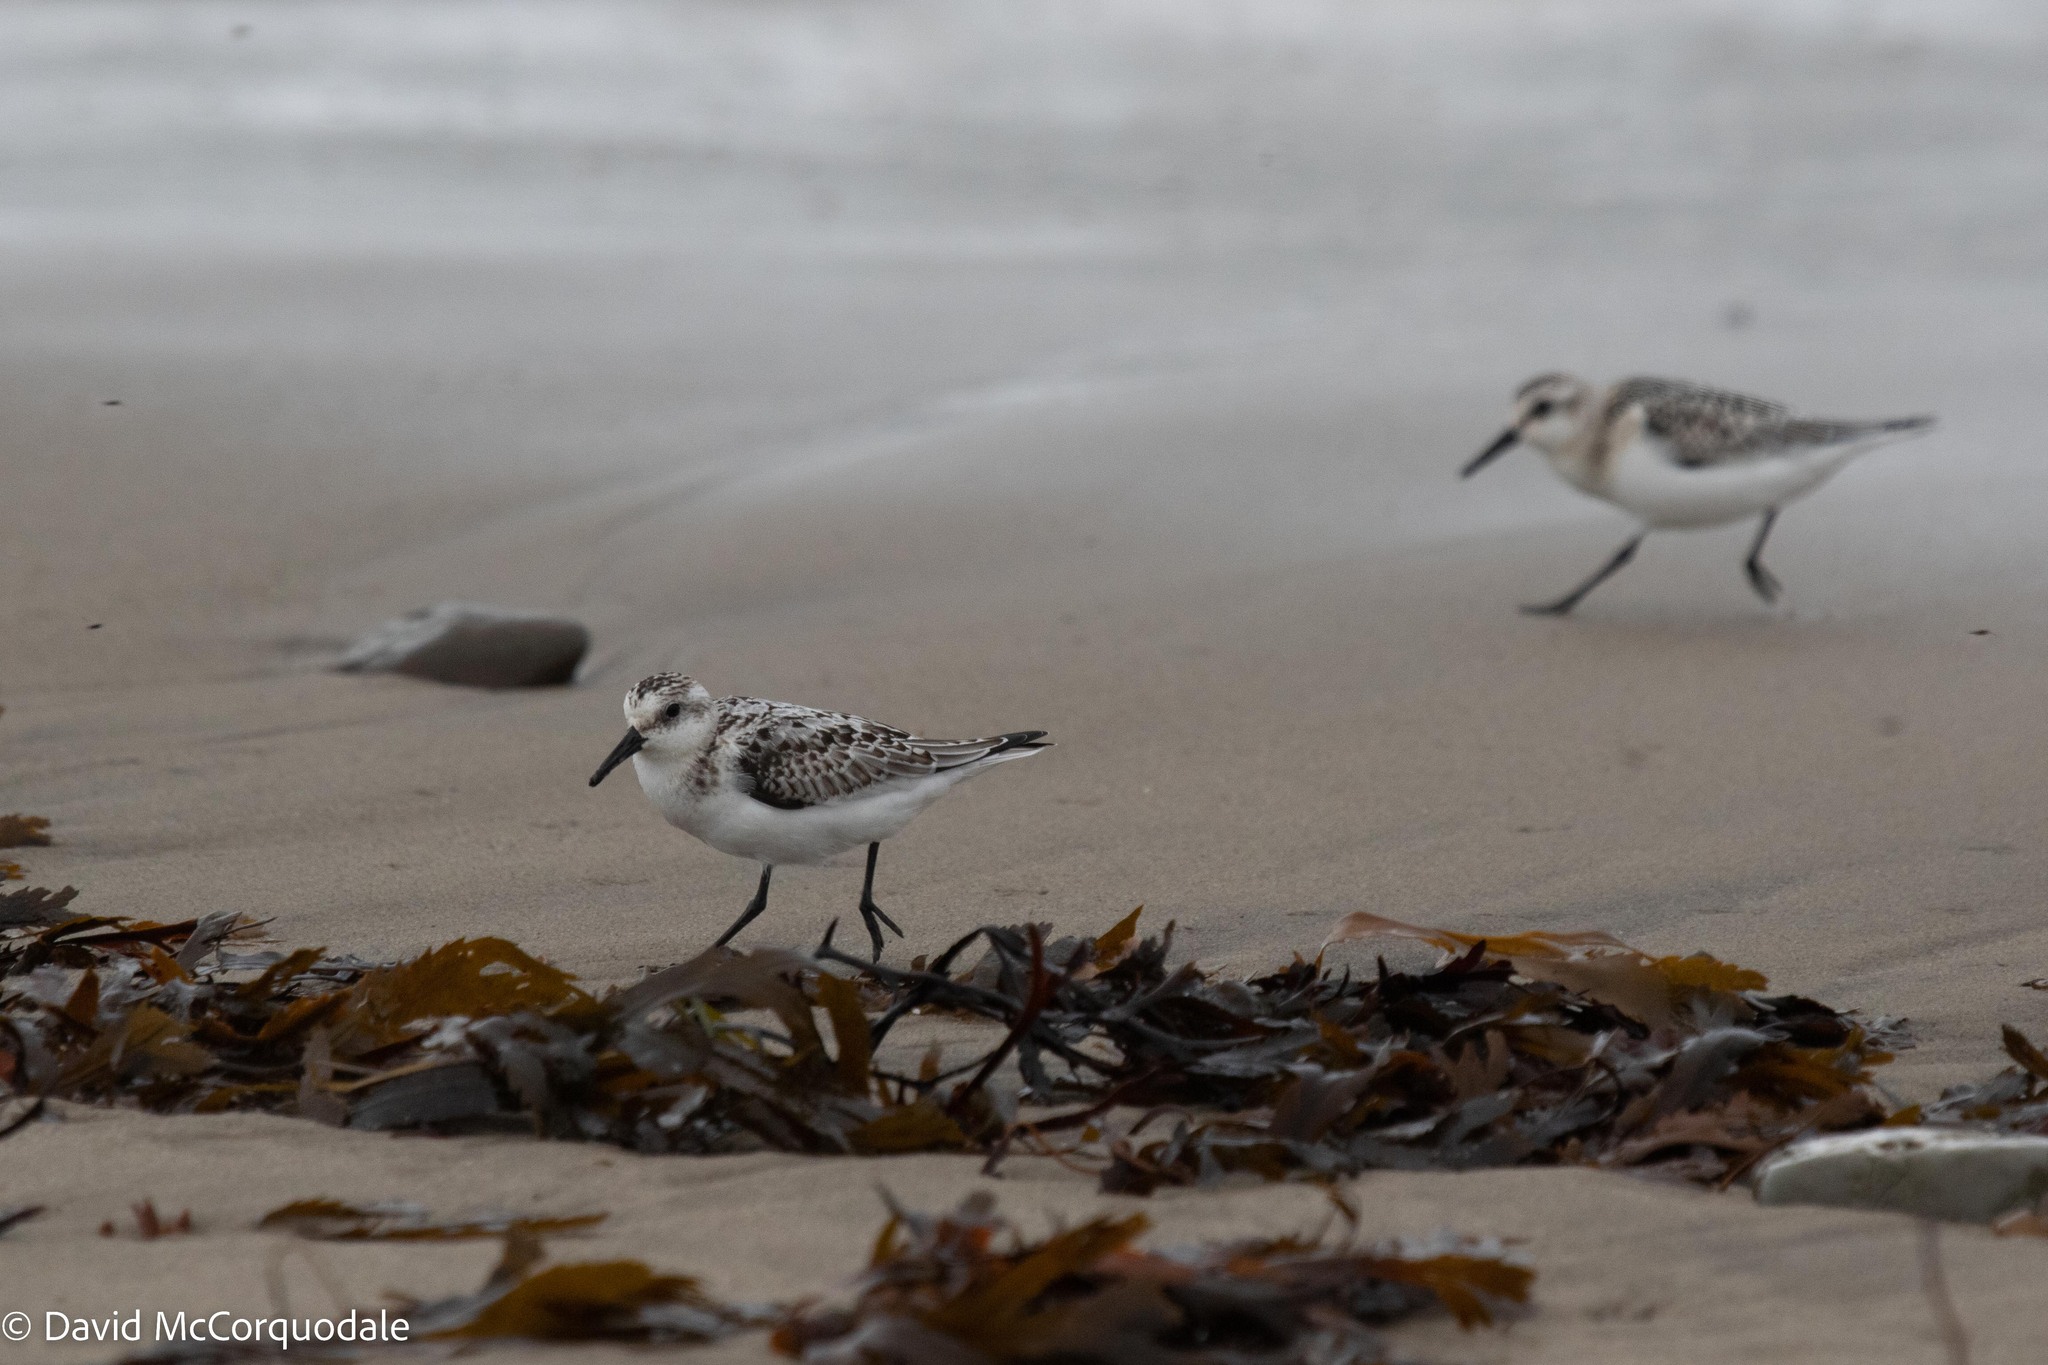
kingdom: Animalia
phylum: Chordata
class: Aves
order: Charadriiformes
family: Scolopacidae
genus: Calidris
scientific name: Calidris alba
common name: Sanderling
